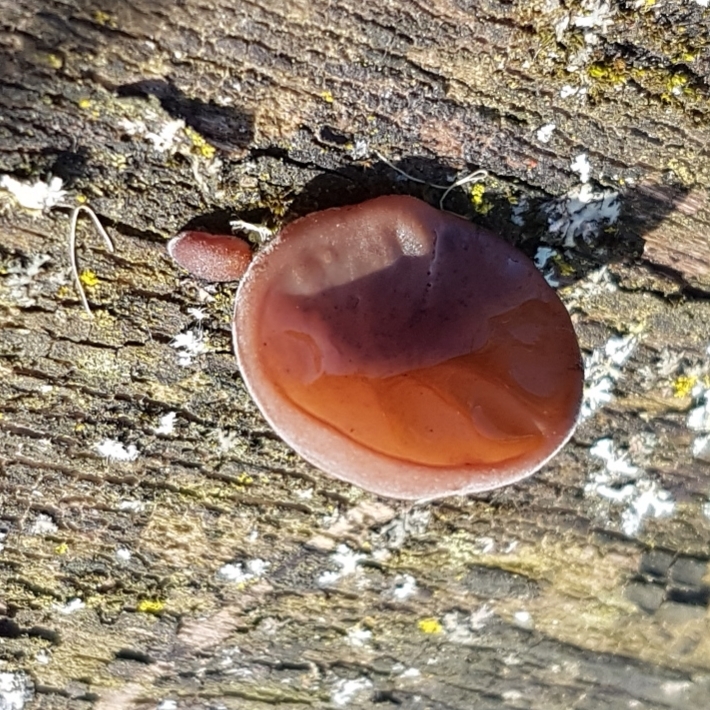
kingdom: Fungi
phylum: Basidiomycota
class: Agaricomycetes
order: Auriculariales
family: Auriculariaceae
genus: Auricularia
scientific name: Auricularia auricula-judae
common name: Jelly ear
